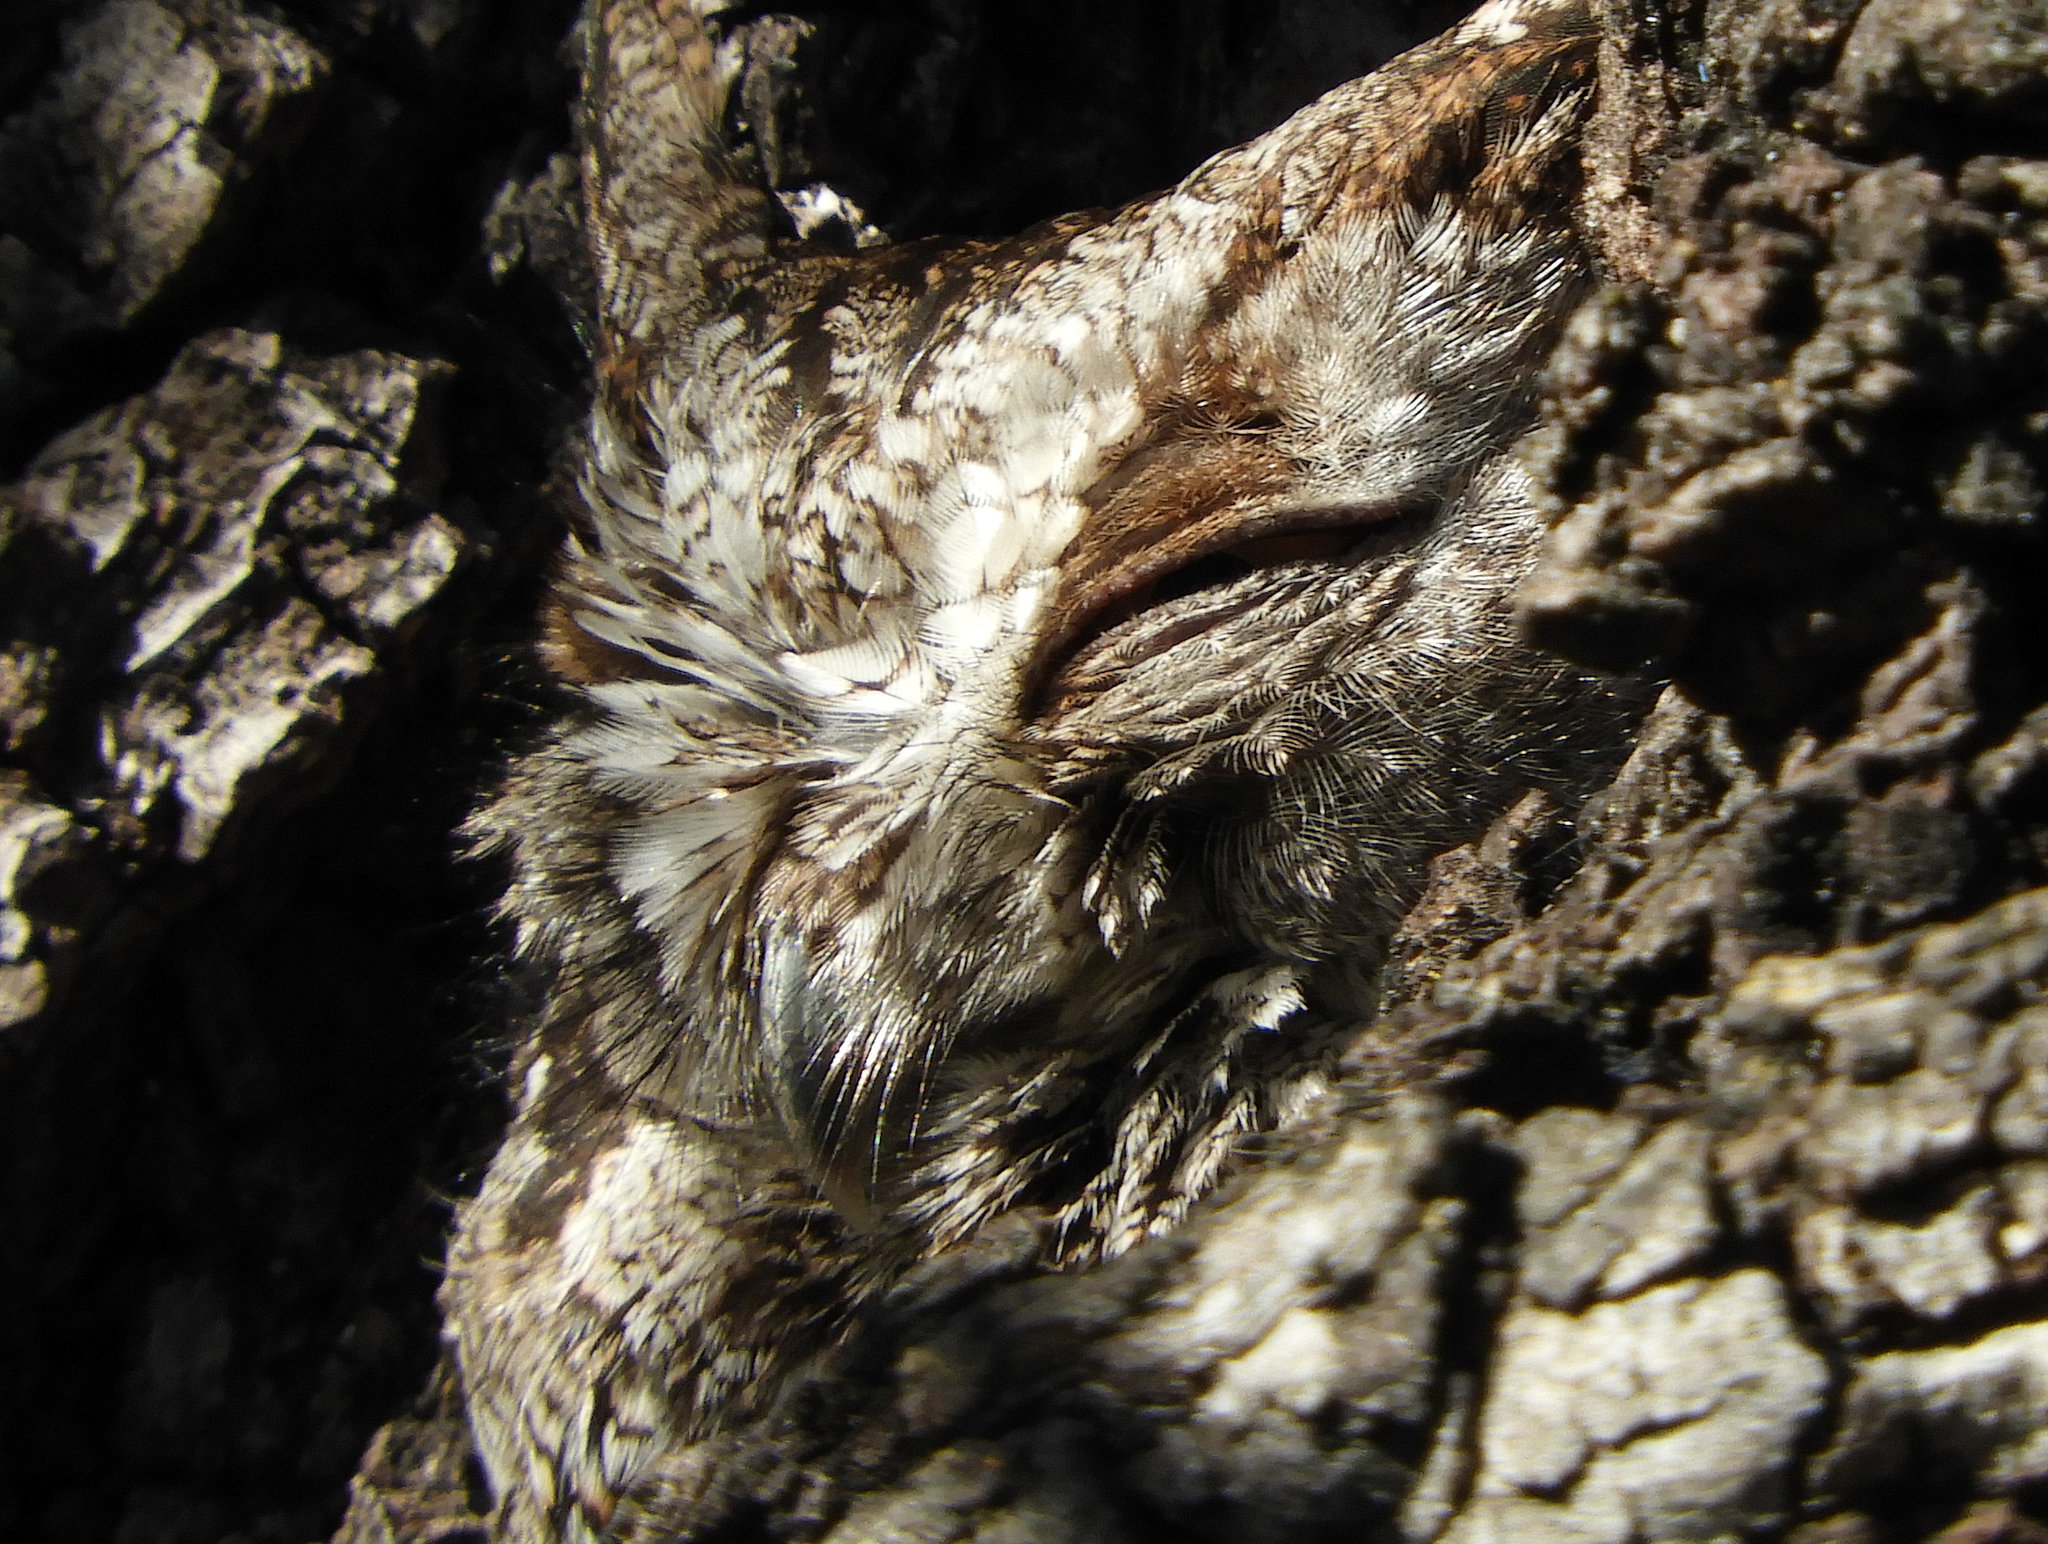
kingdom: Animalia
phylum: Chordata
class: Aves
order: Strigiformes
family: Strigidae
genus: Megascops
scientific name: Megascops kennicottii
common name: Western screech-owl
